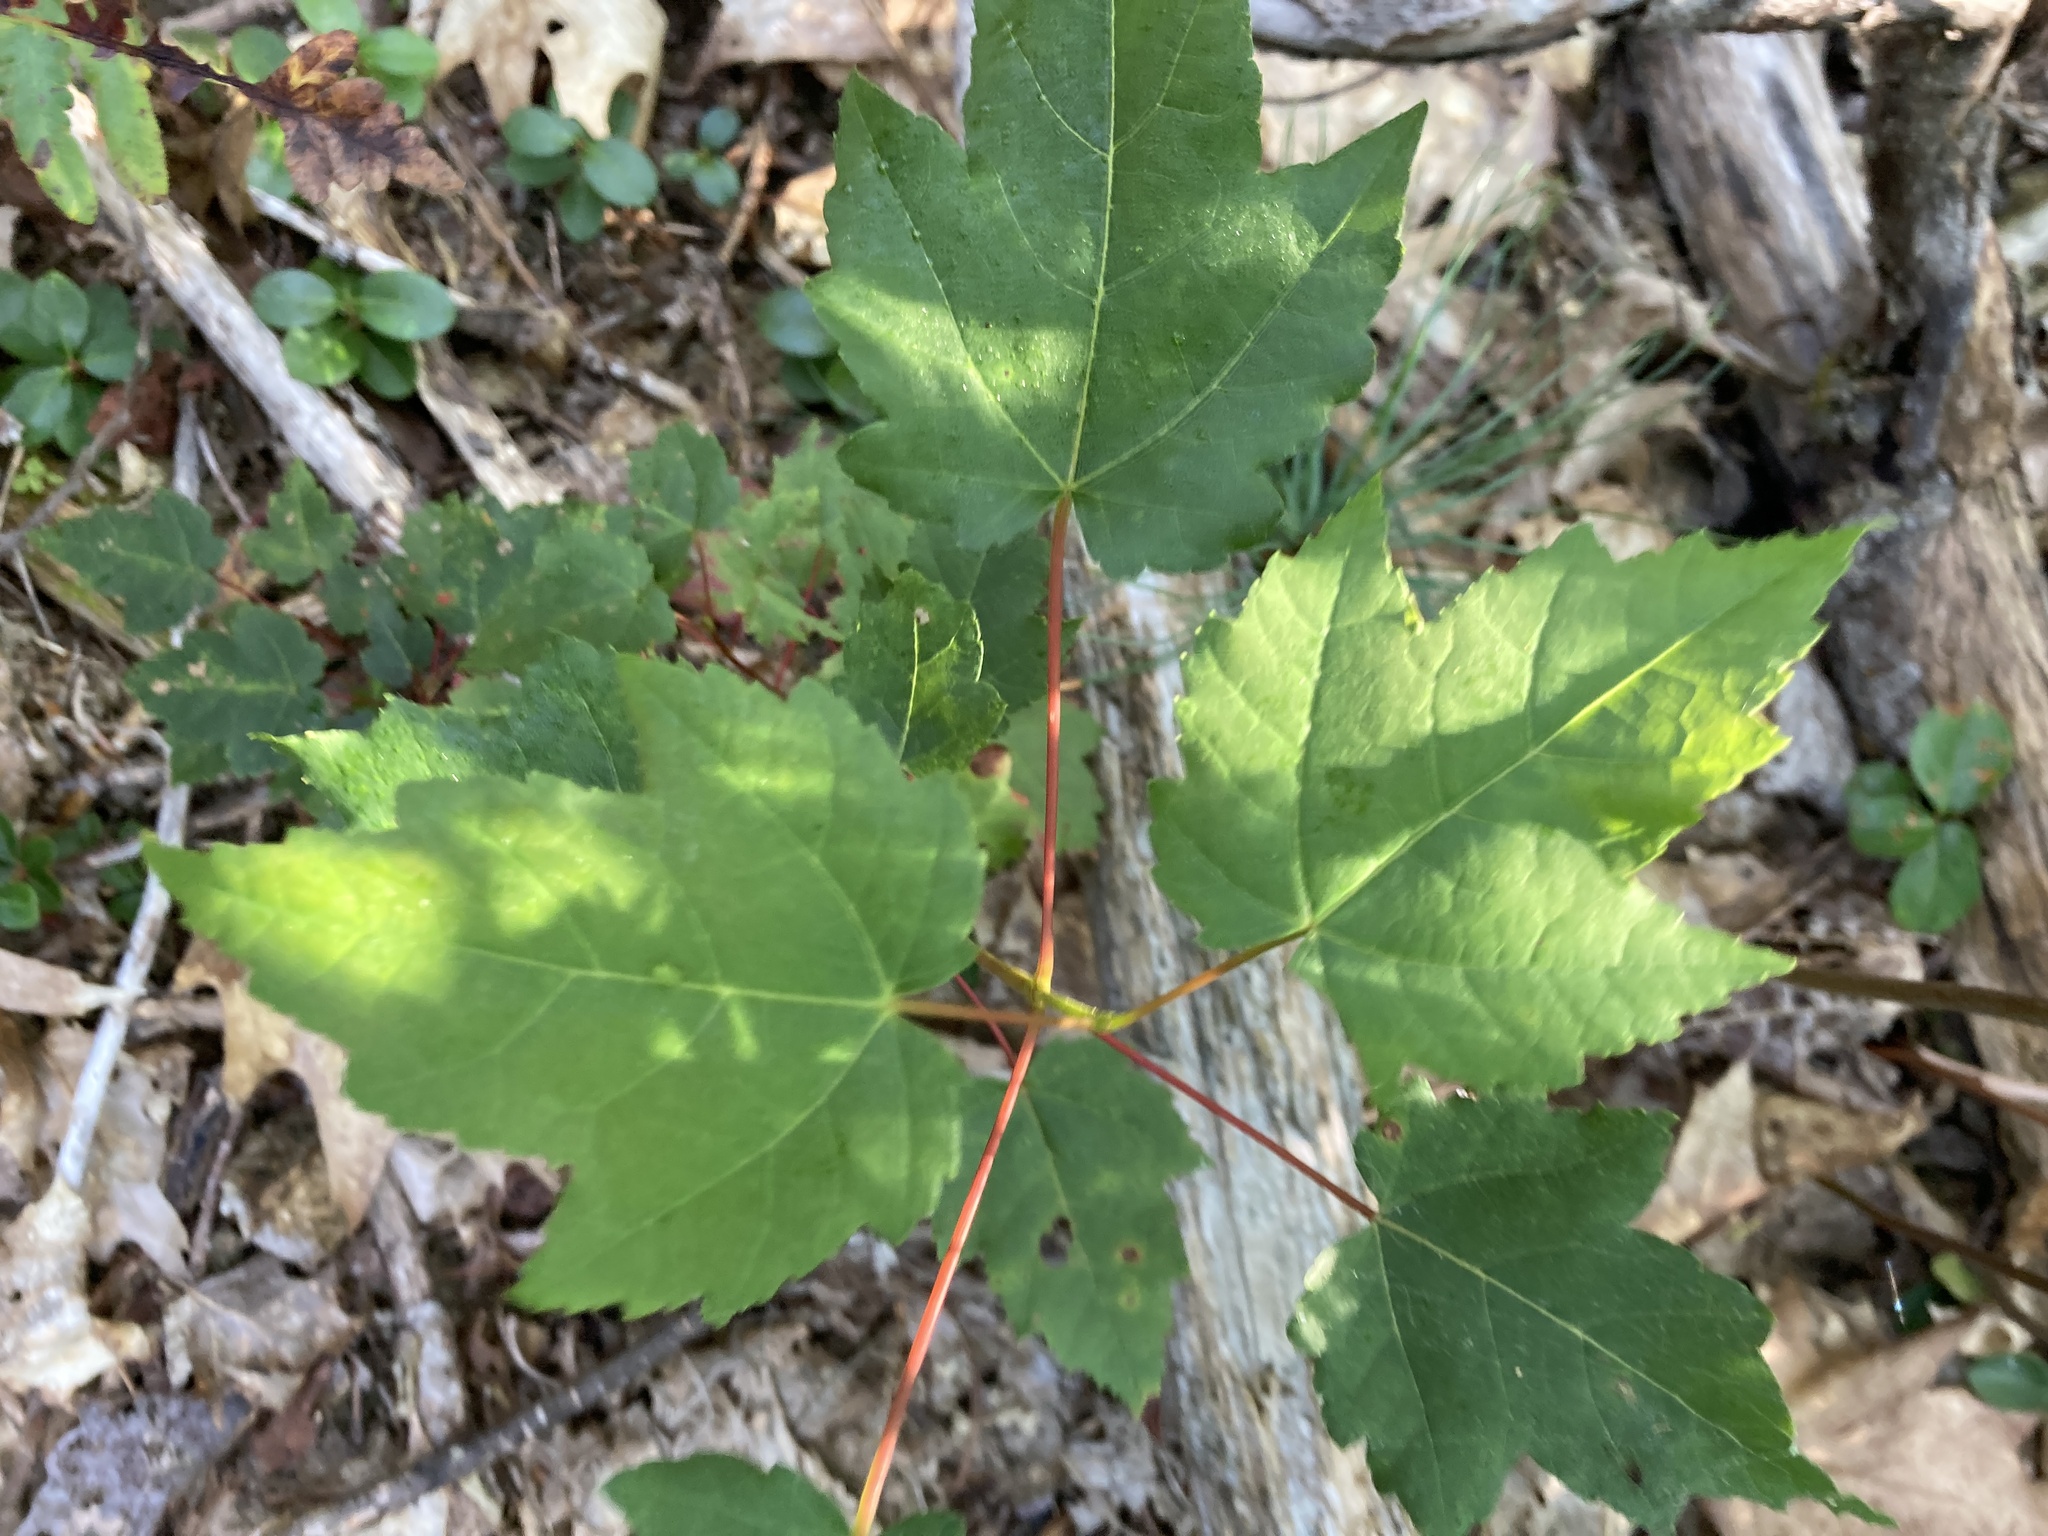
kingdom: Plantae
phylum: Tracheophyta
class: Magnoliopsida
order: Sapindales
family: Sapindaceae
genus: Acer
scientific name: Acer rubrum
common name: Red maple
